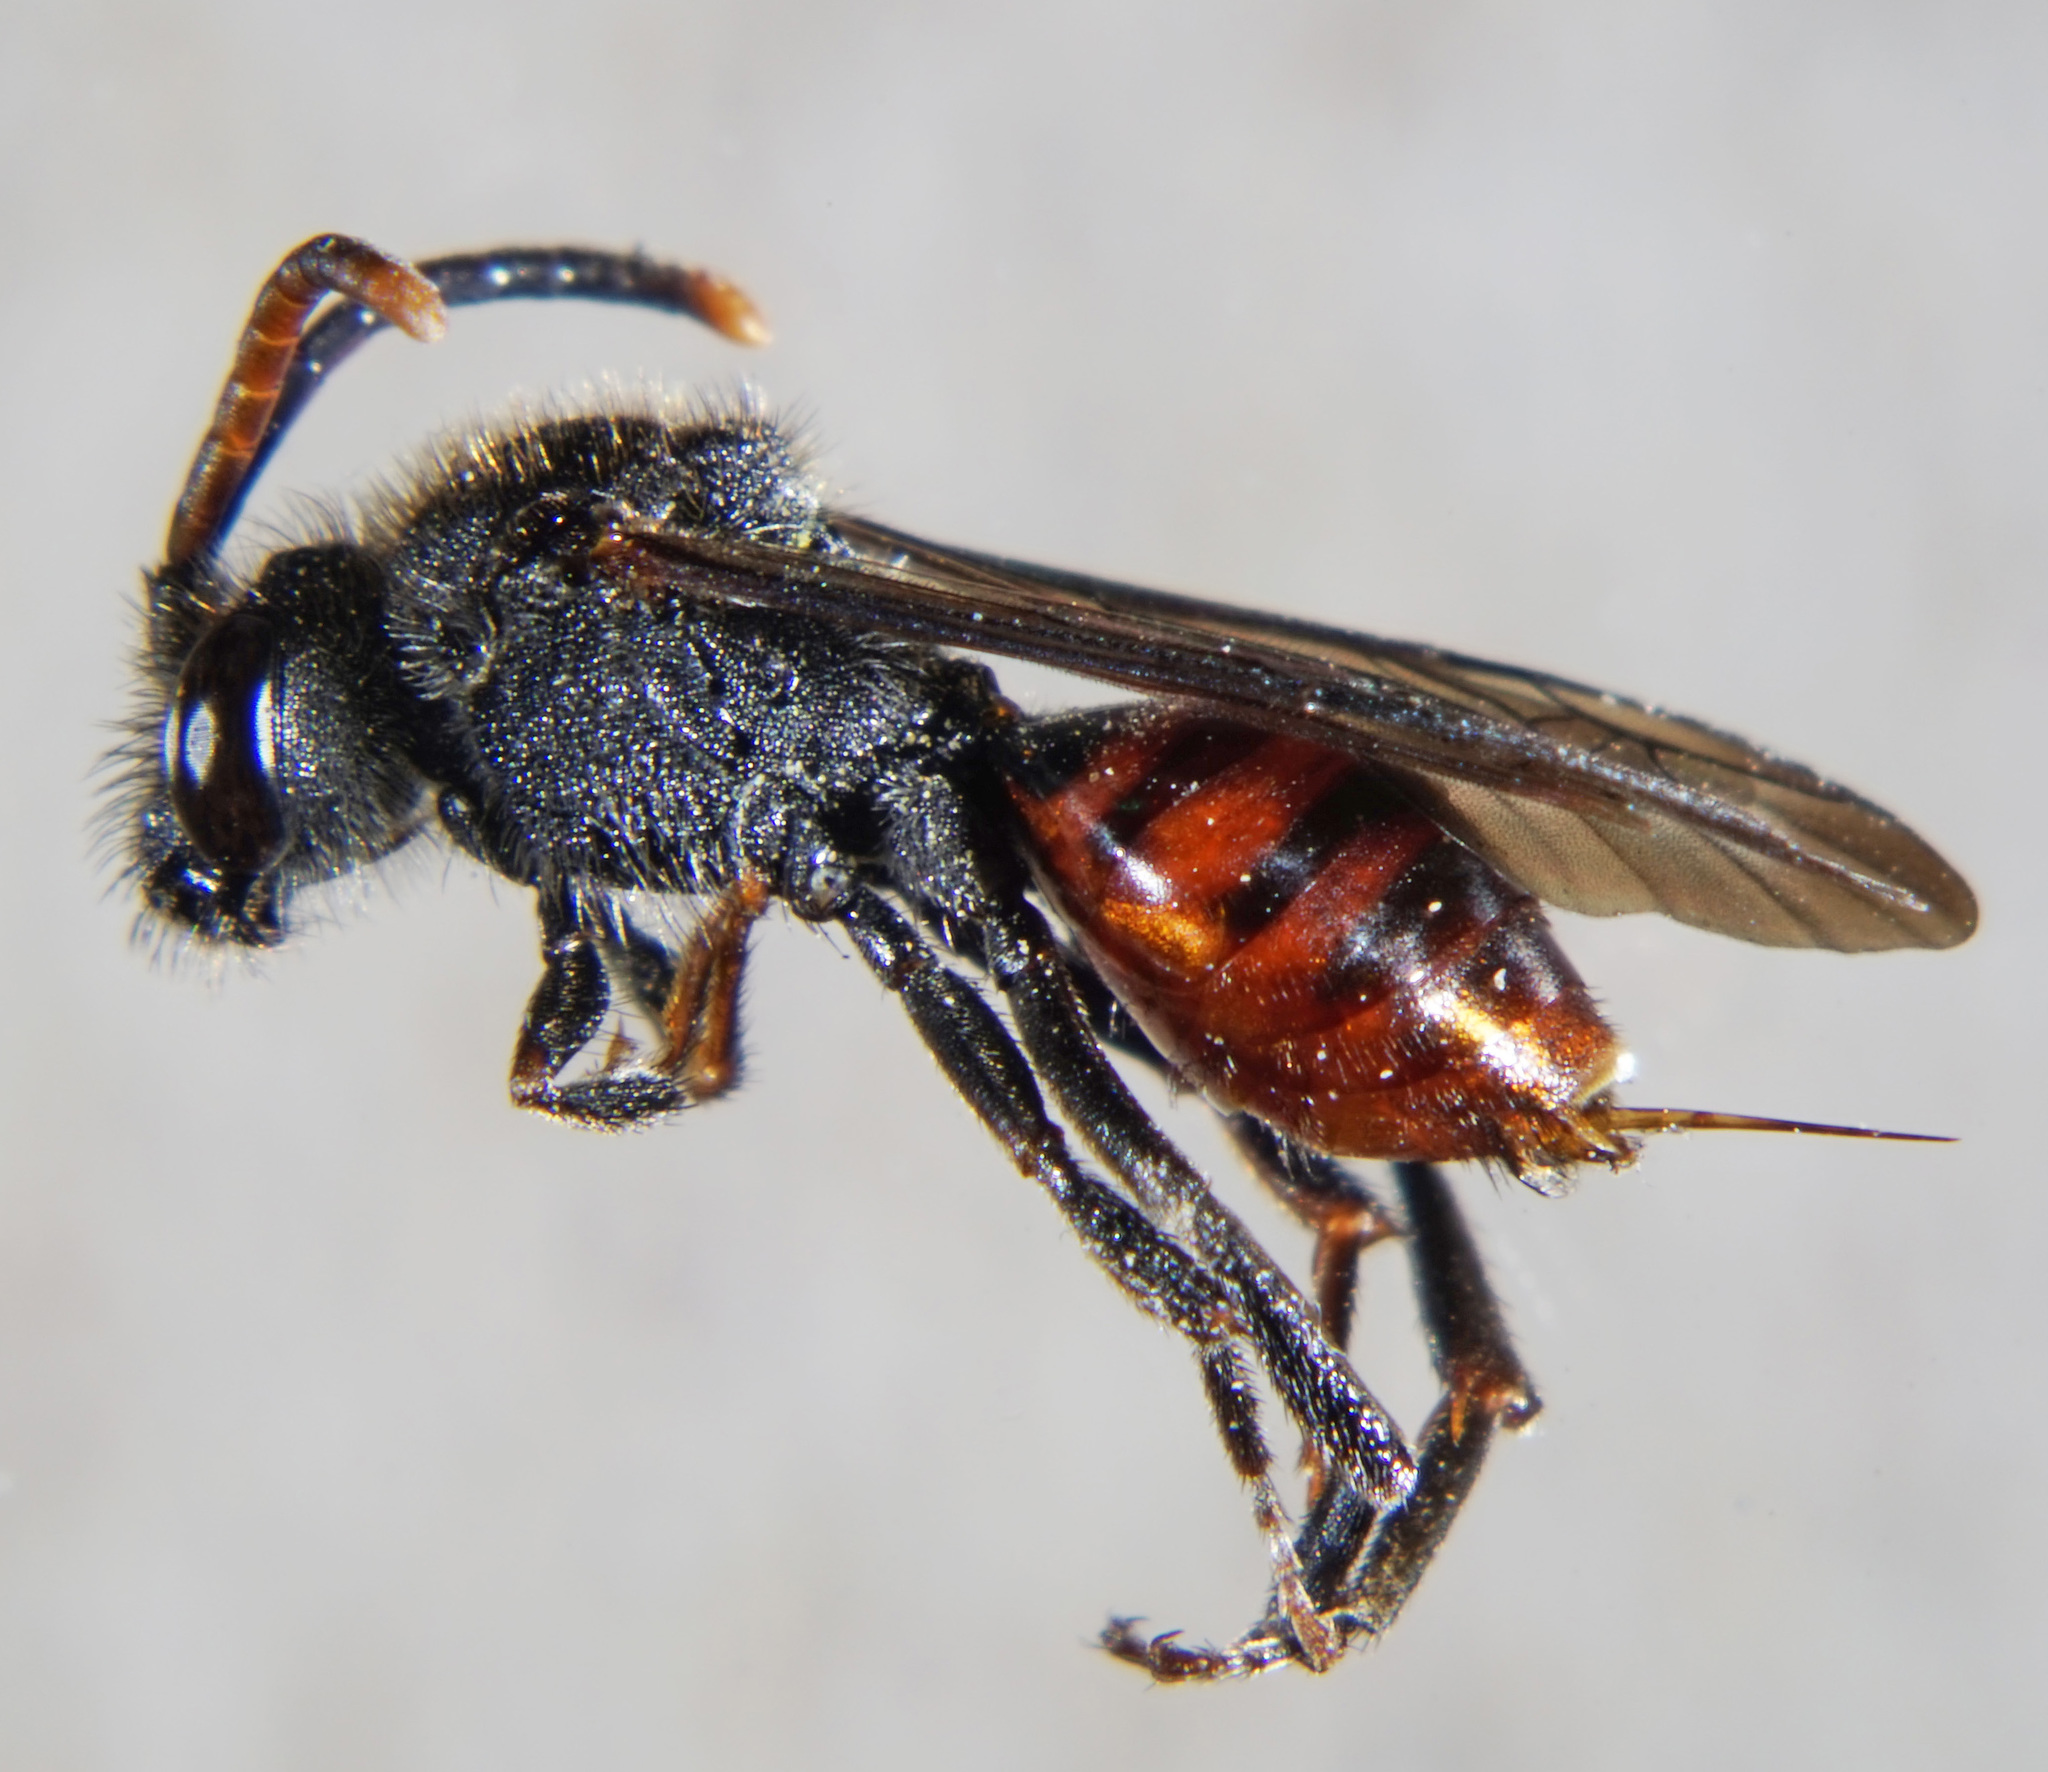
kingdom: Animalia
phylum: Arthropoda
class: Insecta
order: Hymenoptera
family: Apidae
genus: Nomada
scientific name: Nomada fabriciana
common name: Fabricius' nomad bee
